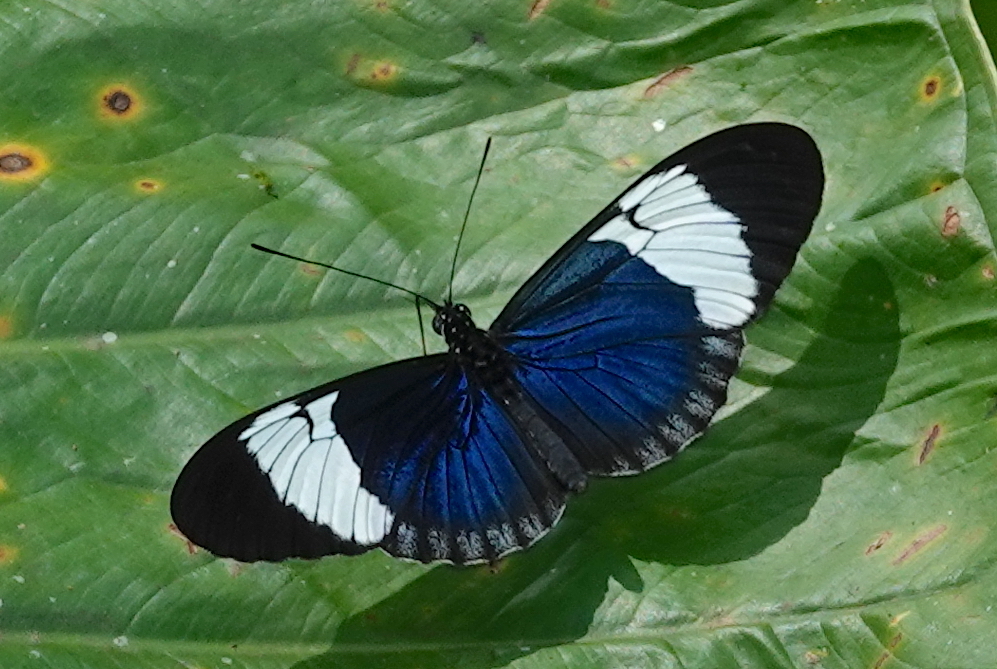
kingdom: Animalia
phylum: Arthropoda
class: Insecta
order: Lepidoptera
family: Nymphalidae
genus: Heliconius
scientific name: Heliconius sapho
